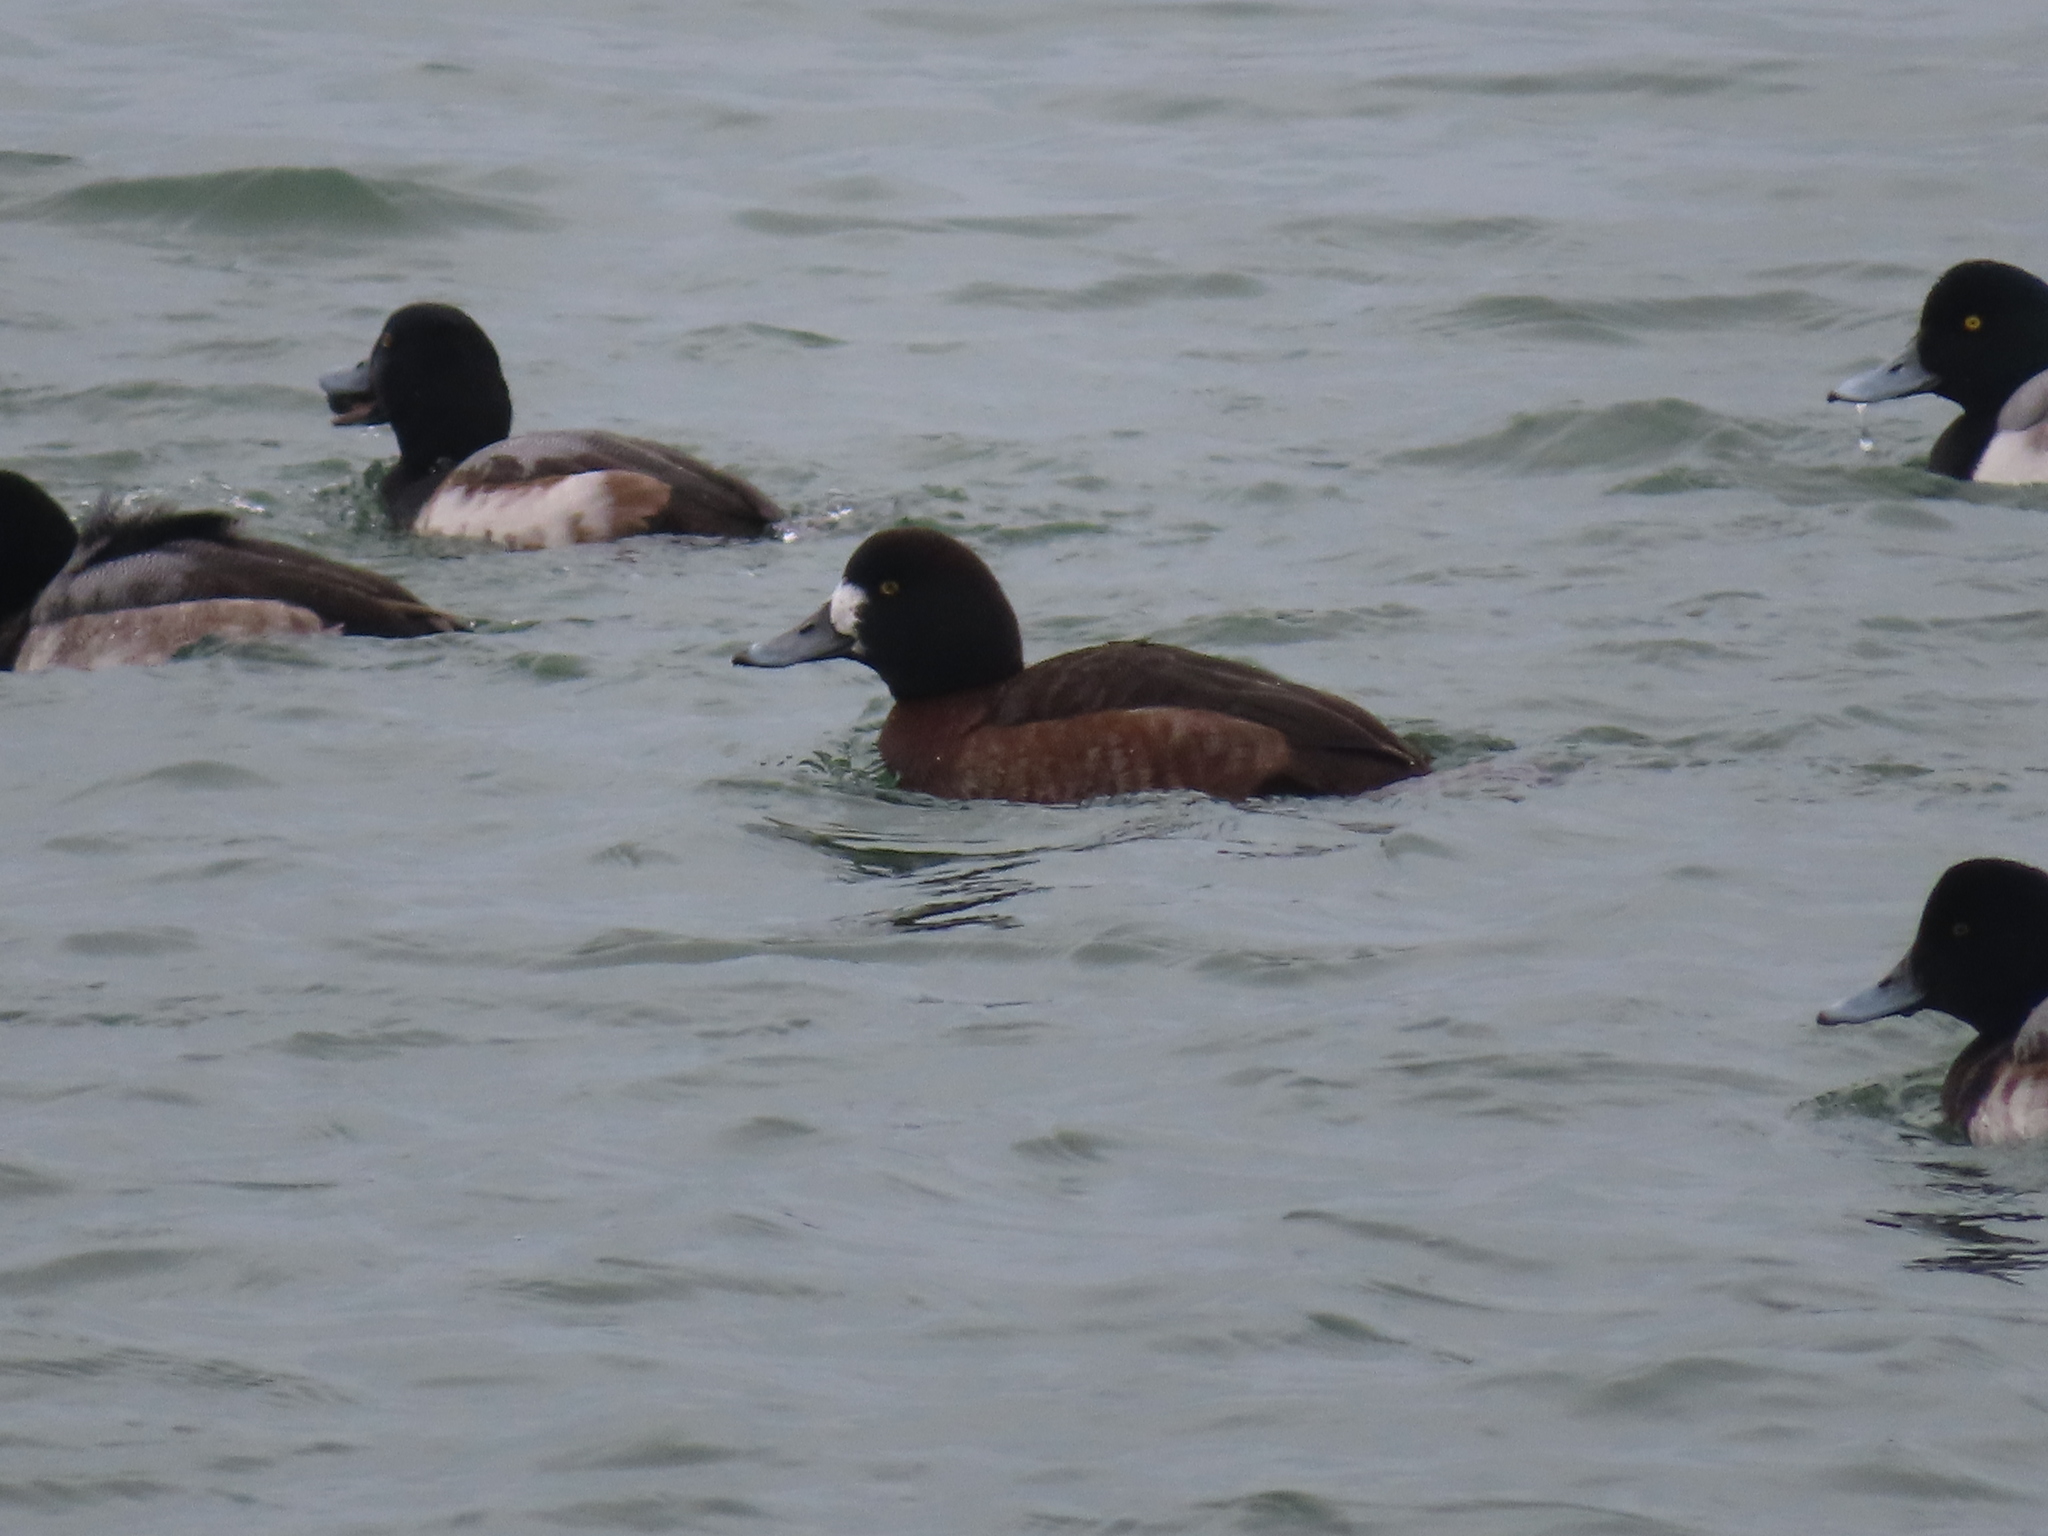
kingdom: Animalia
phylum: Chordata
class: Aves
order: Anseriformes
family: Anatidae
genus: Aythya
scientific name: Aythya marila
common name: Greater scaup
